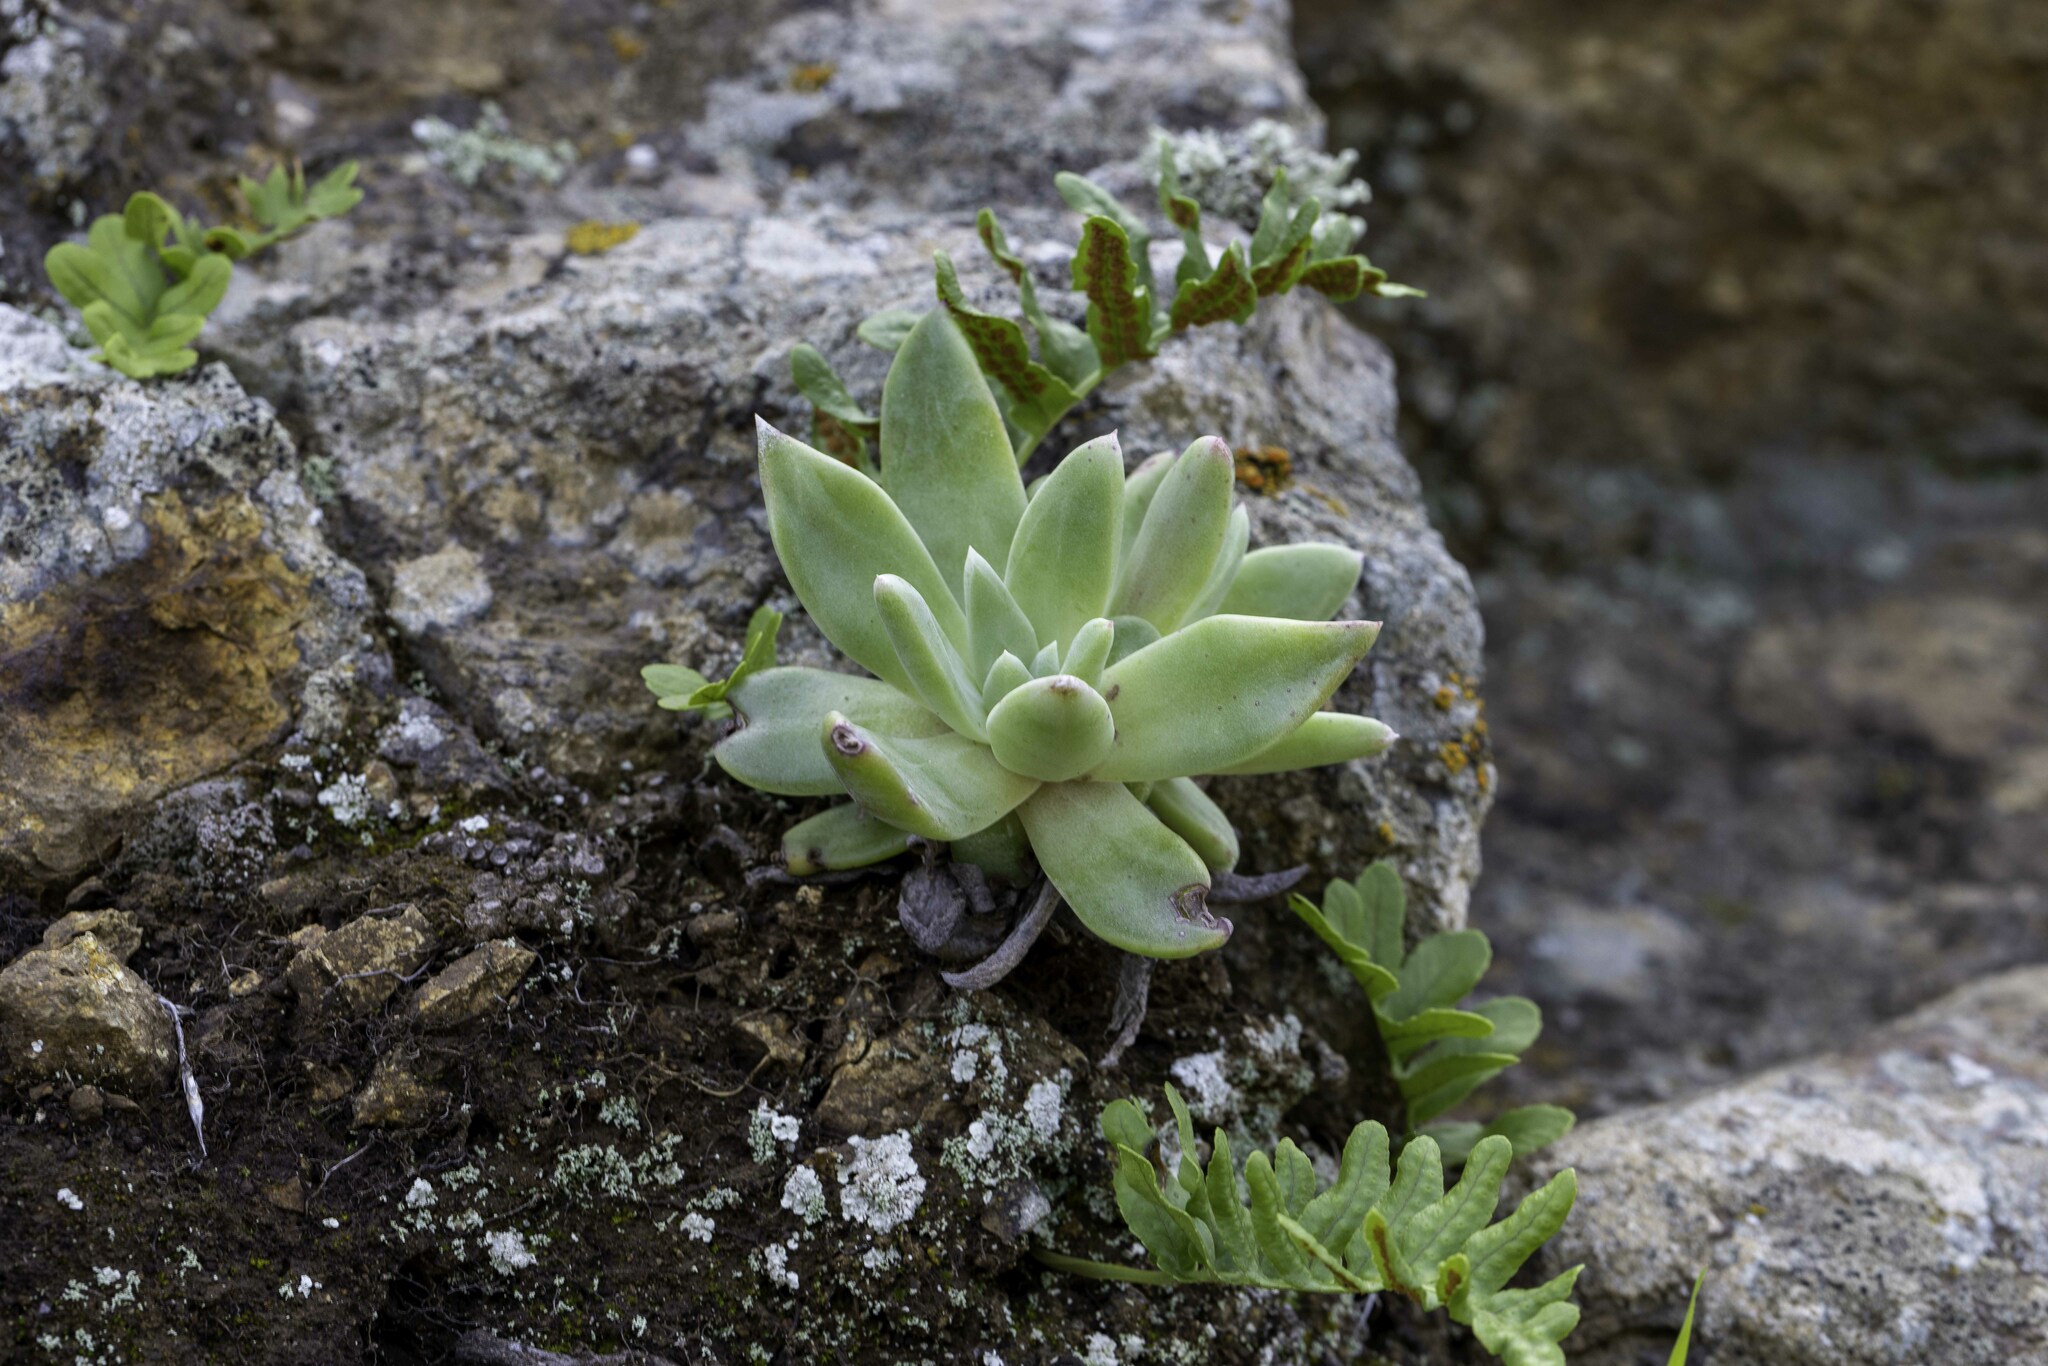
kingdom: Plantae
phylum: Tracheophyta
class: Magnoliopsida
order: Saxifragales
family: Crassulaceae
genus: Dudleya
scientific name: Dudleya greenei
